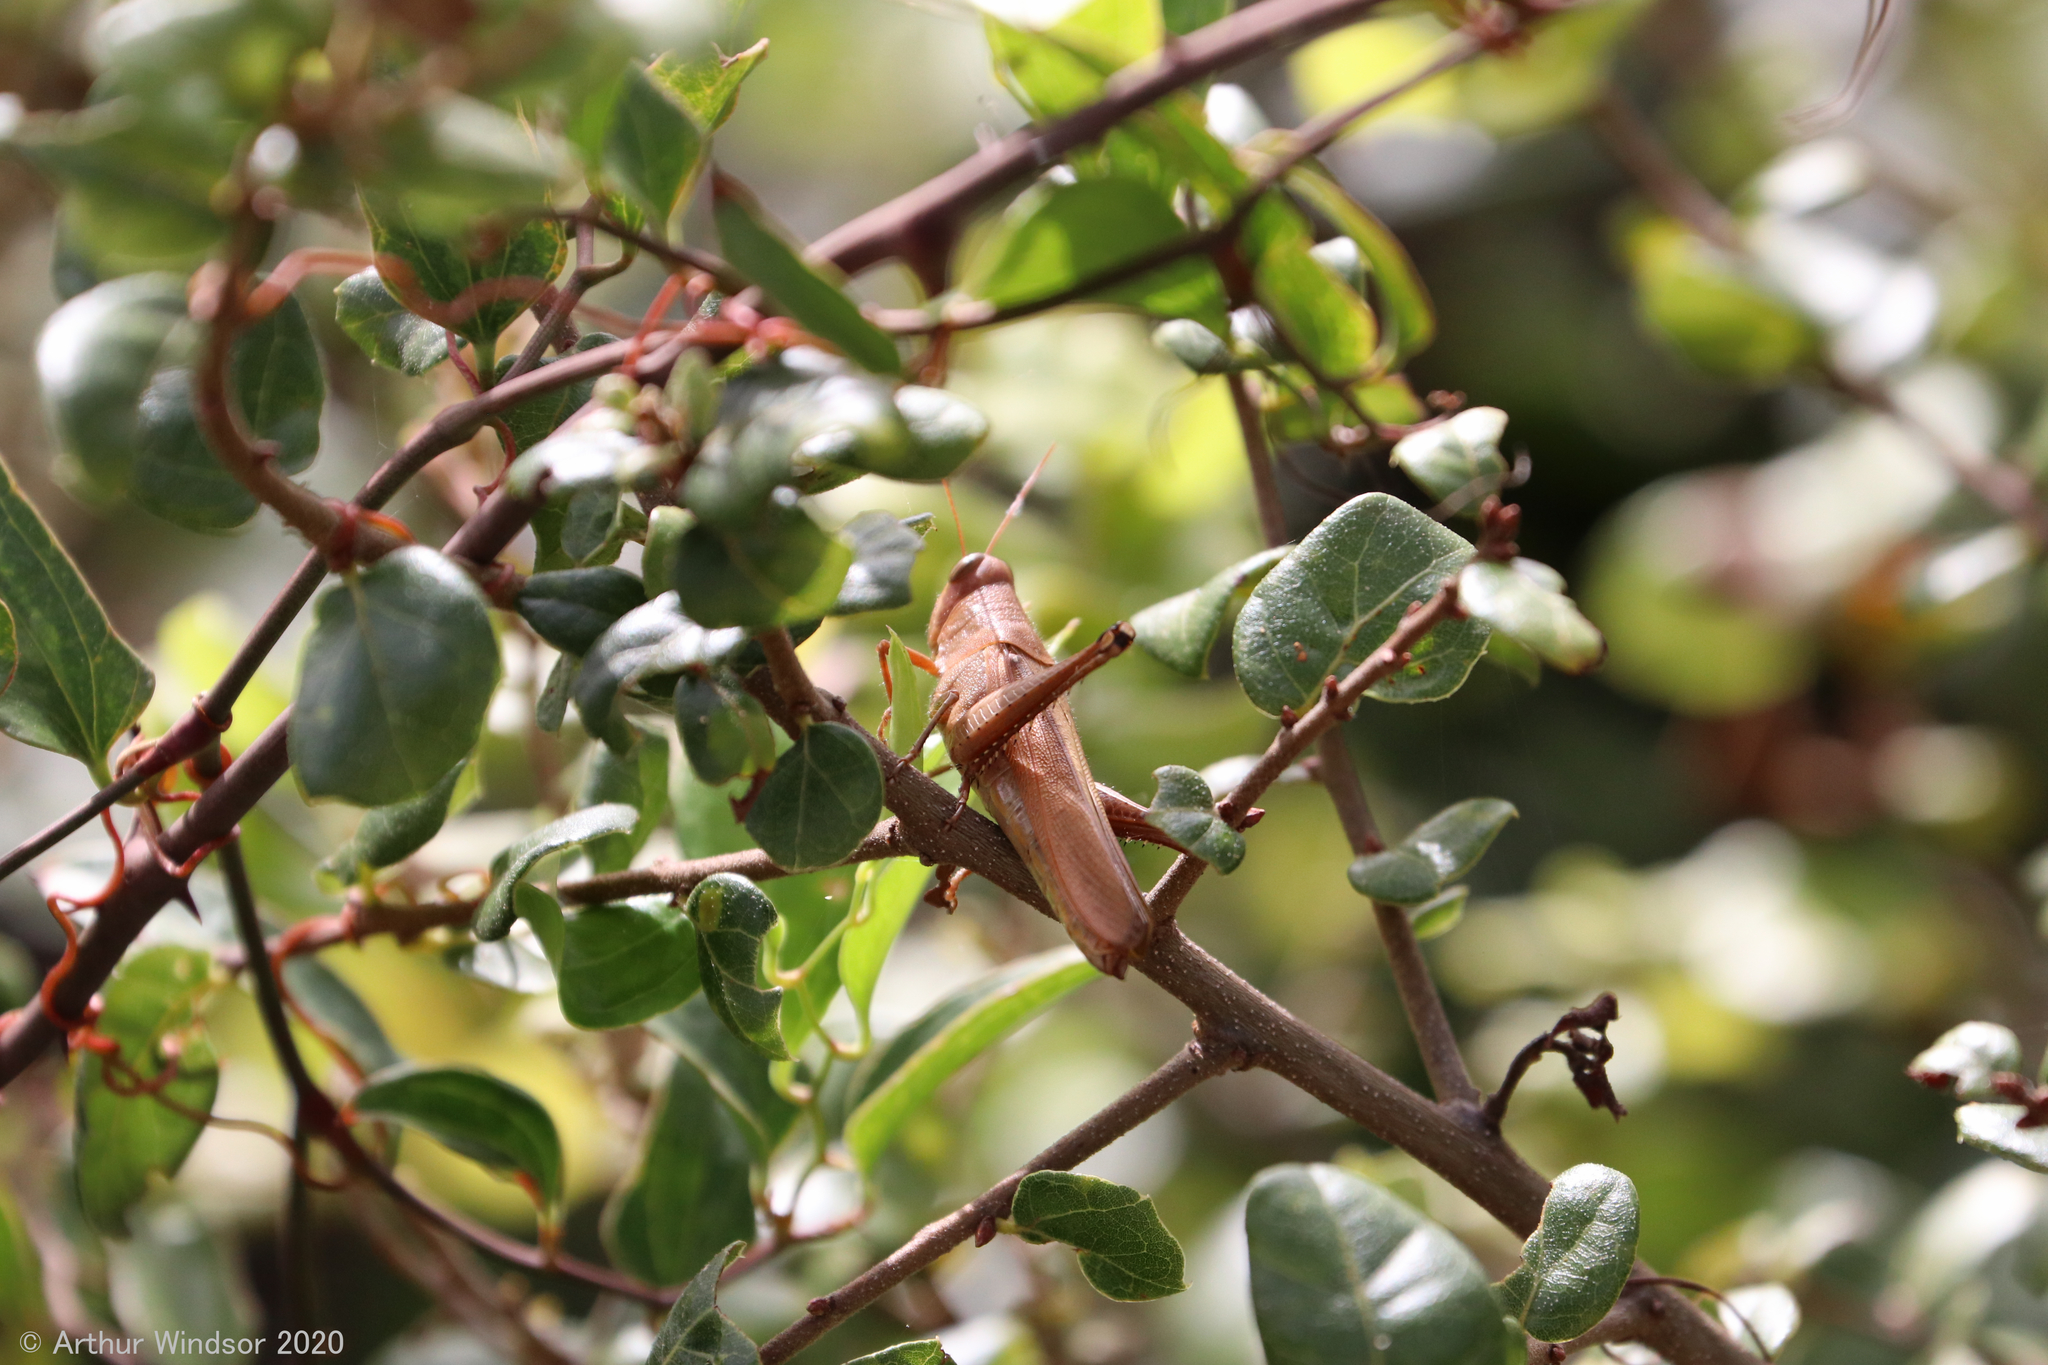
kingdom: Animalia
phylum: Arthropoda
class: Insecta
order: Orthoptera
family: Acrididae
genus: Schistocerca
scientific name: Schistocerca rubiginosa
